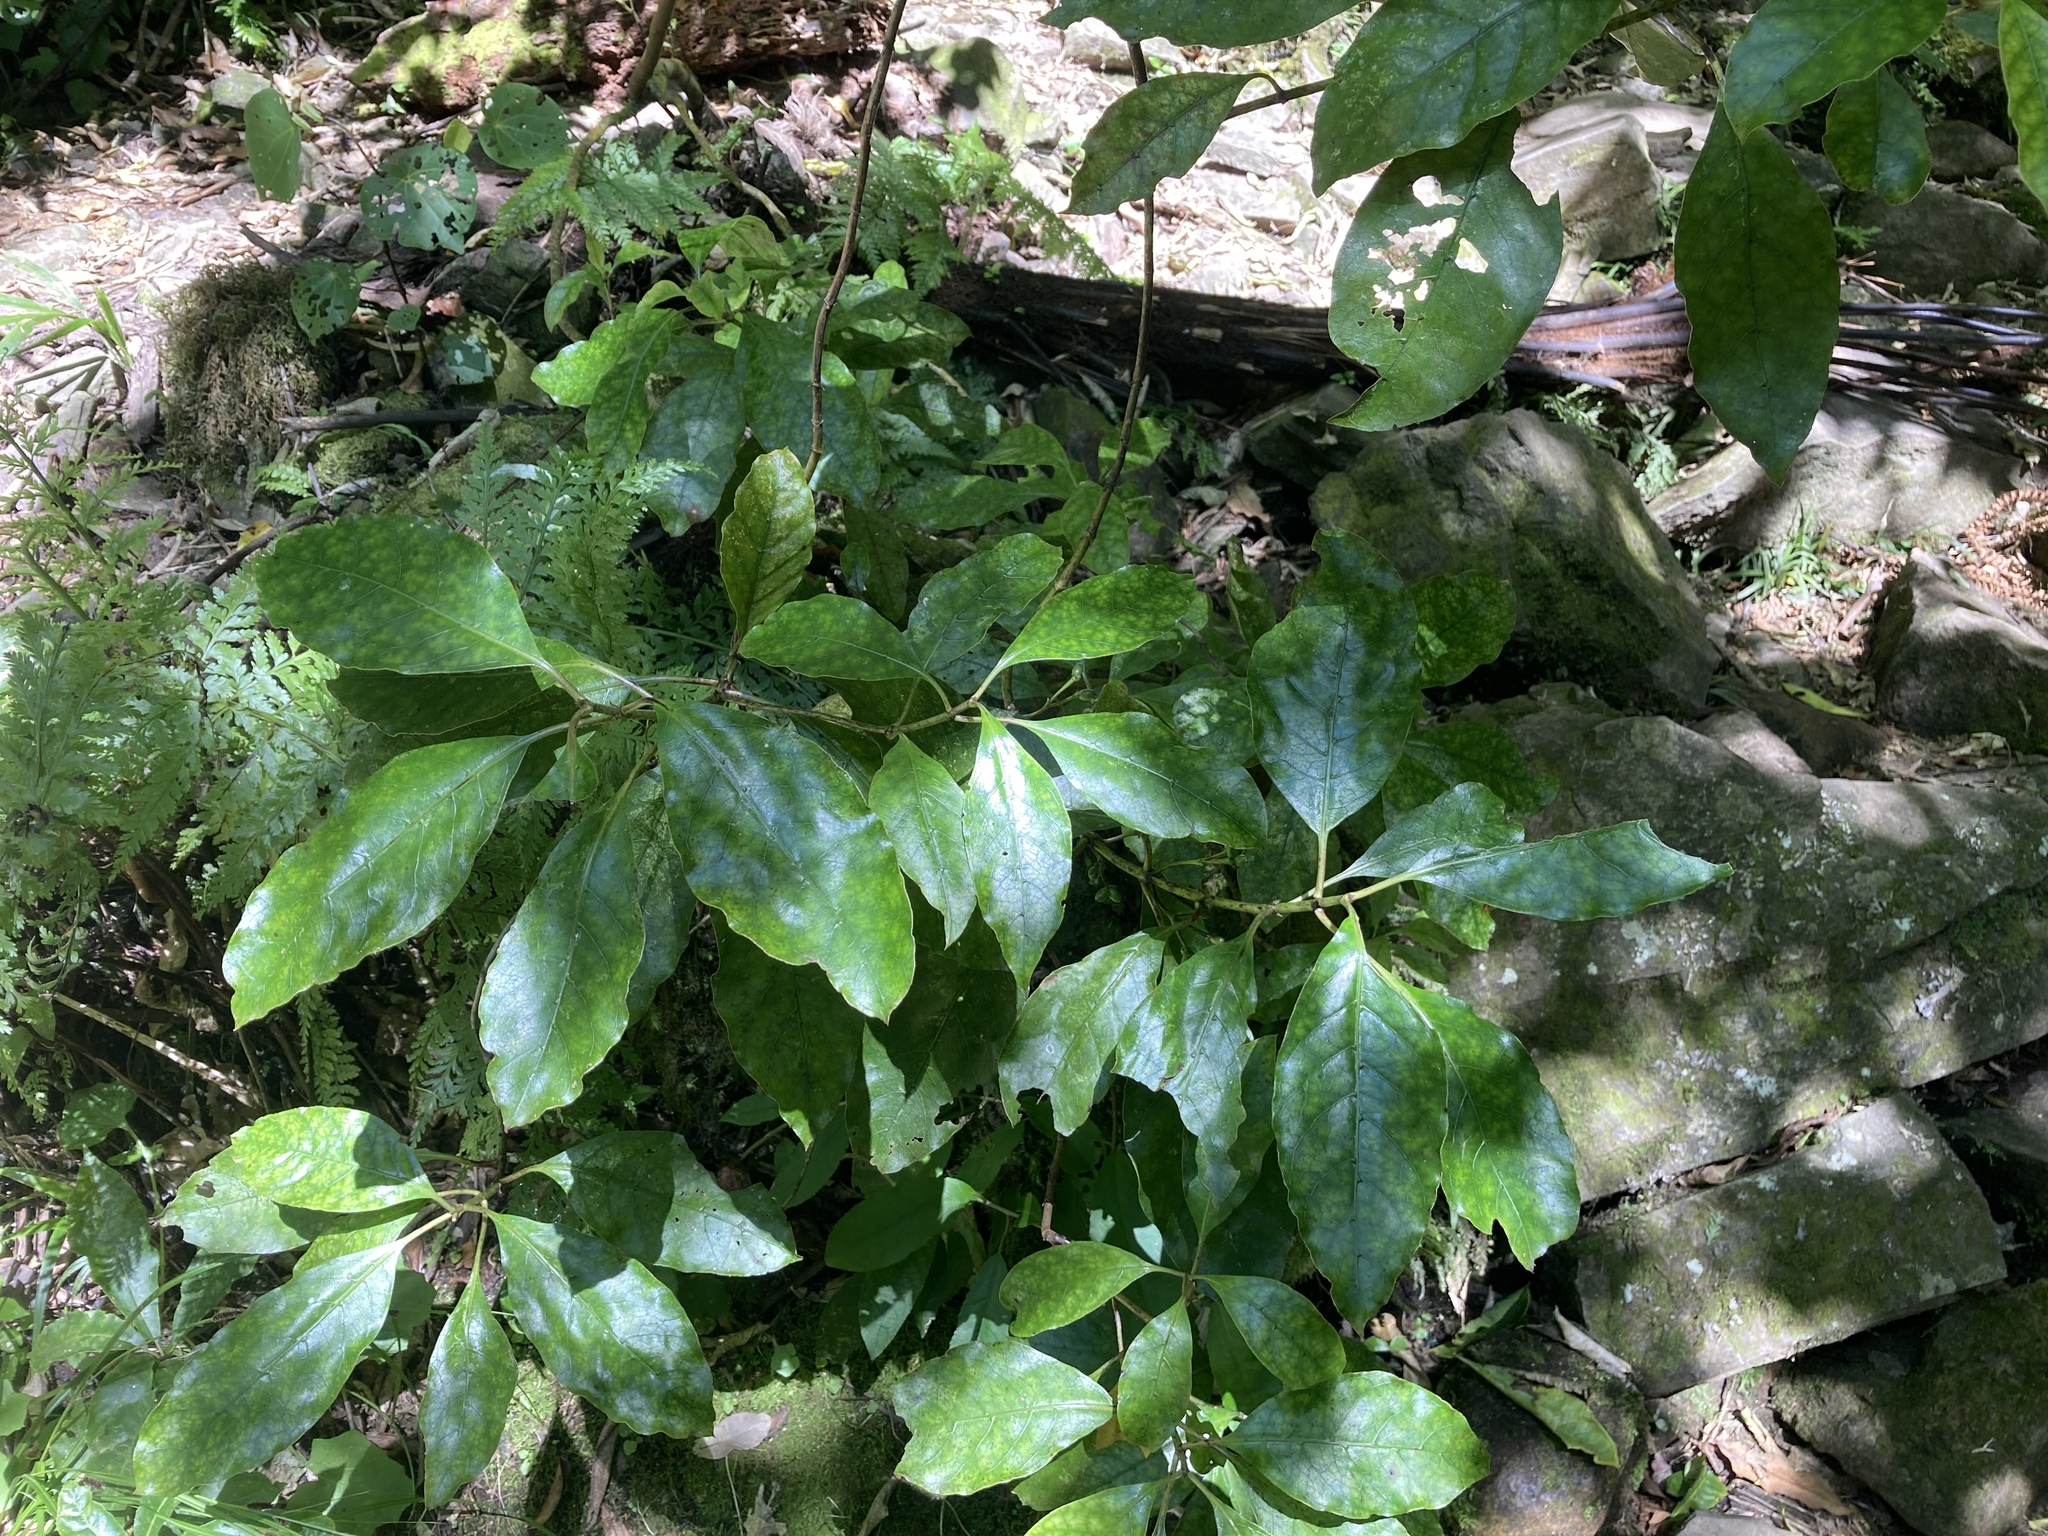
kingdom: Plantae
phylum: Tracheophyta
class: Magnoliopsida
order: Gentianales
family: Rubiaceae
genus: Coprosma
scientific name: Coprosma autumnalis
